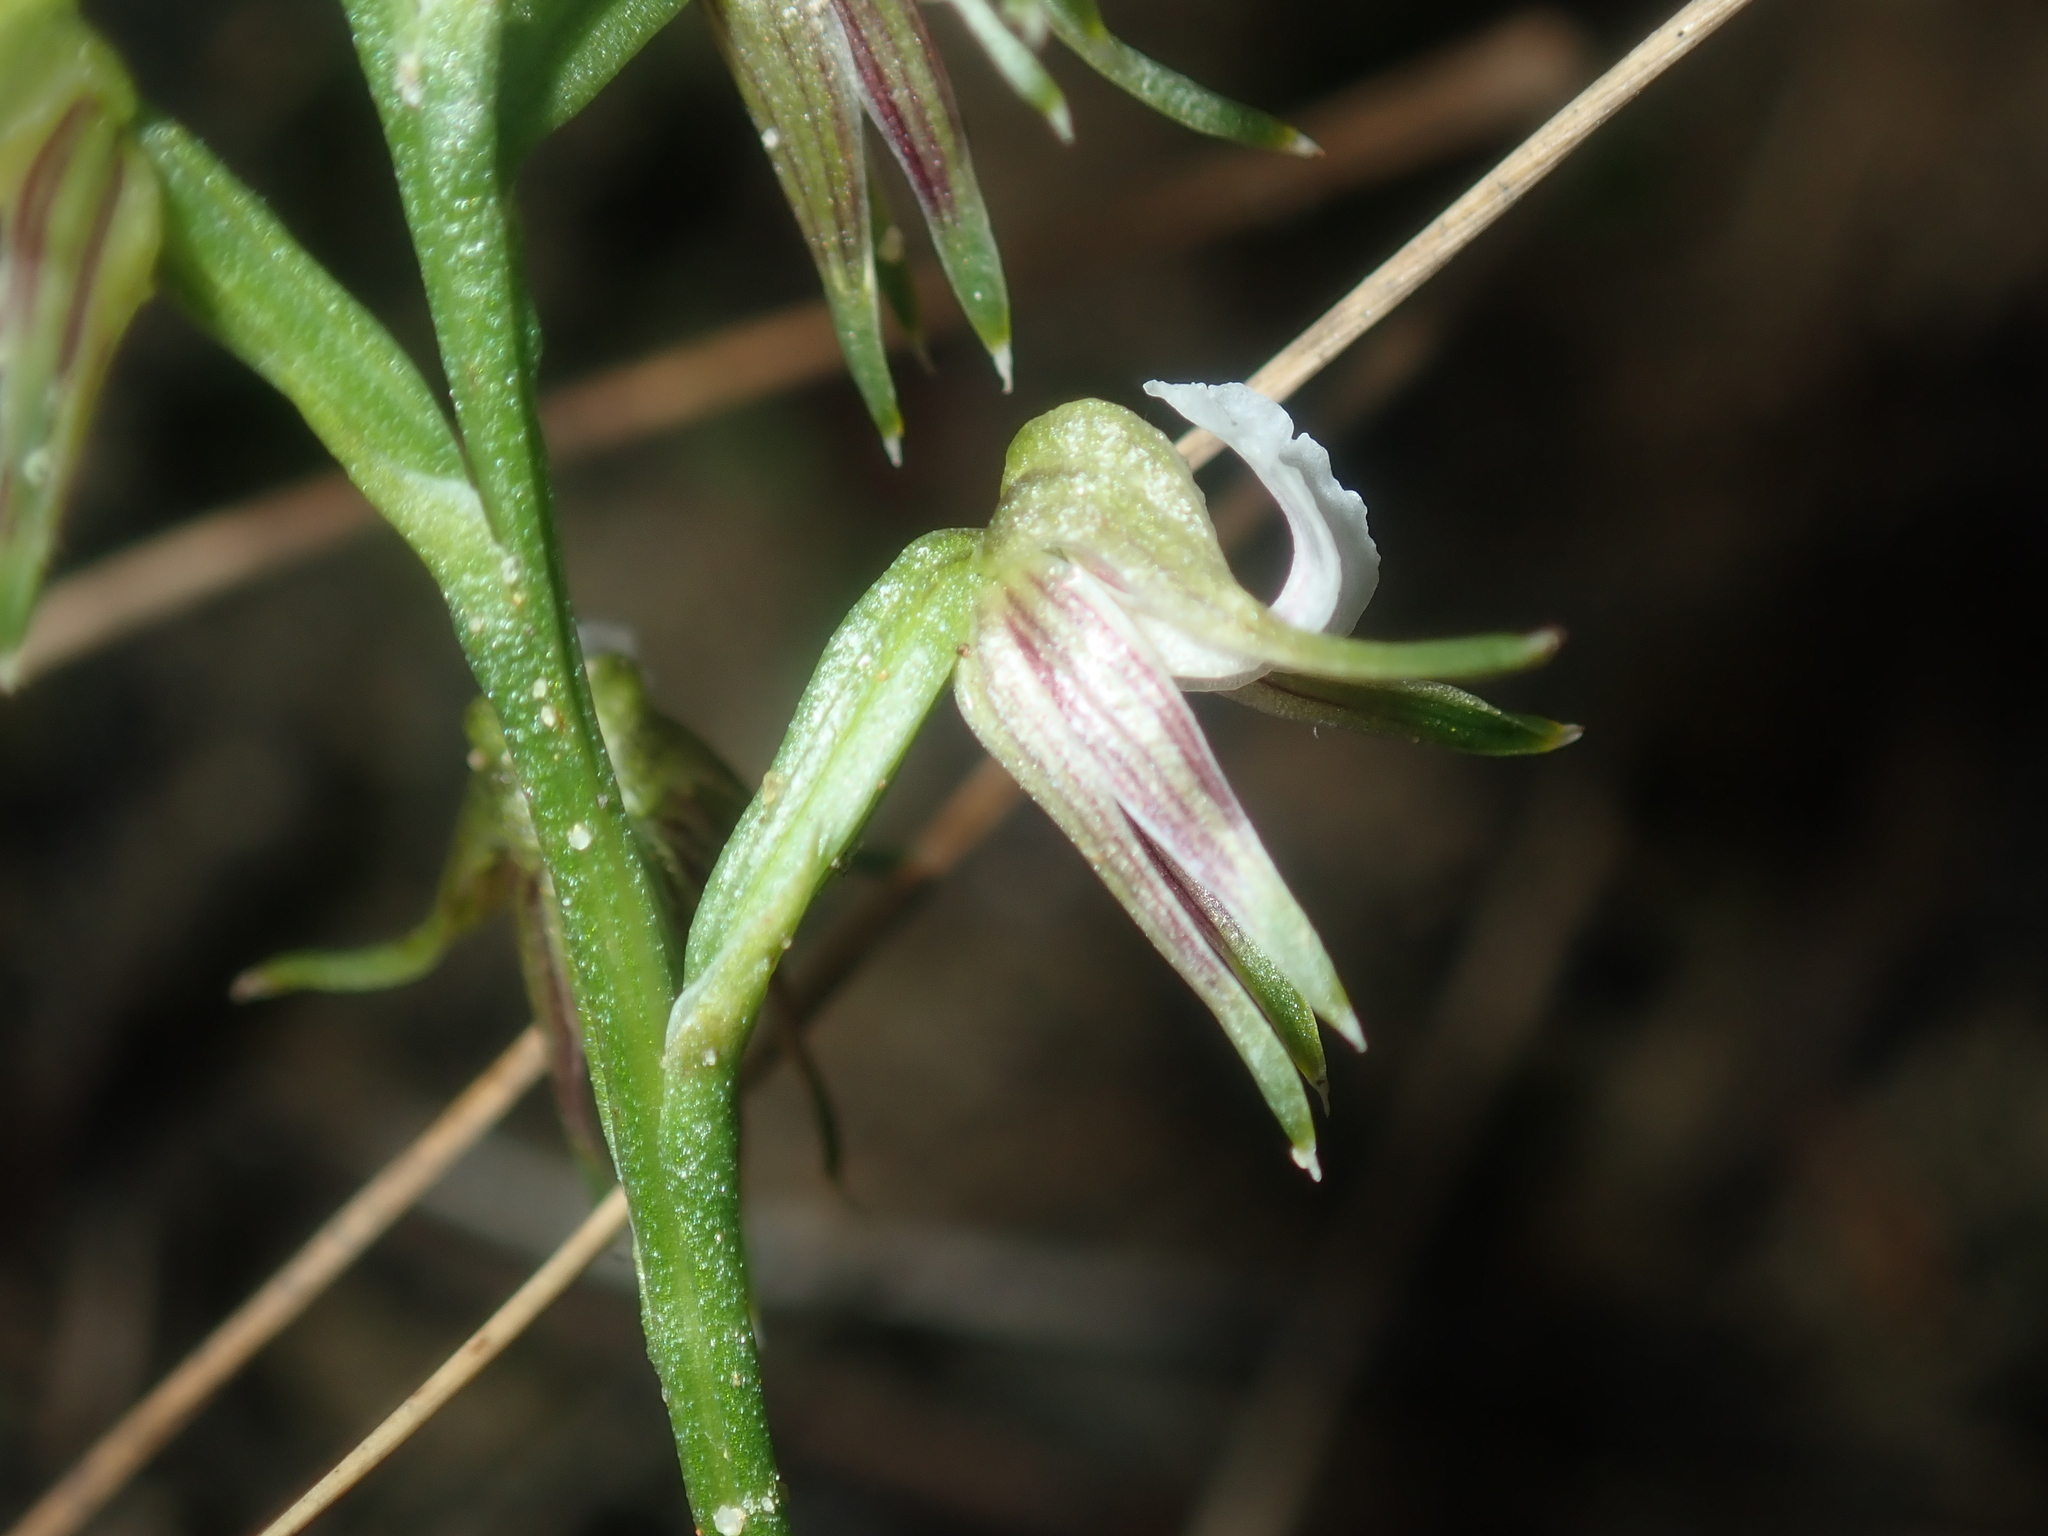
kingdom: Plantae
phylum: Tracheophyta
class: Liliopsida
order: Asparagales
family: Orchidaceae
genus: Prasophyllum
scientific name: Prasophyllum parvifolium
